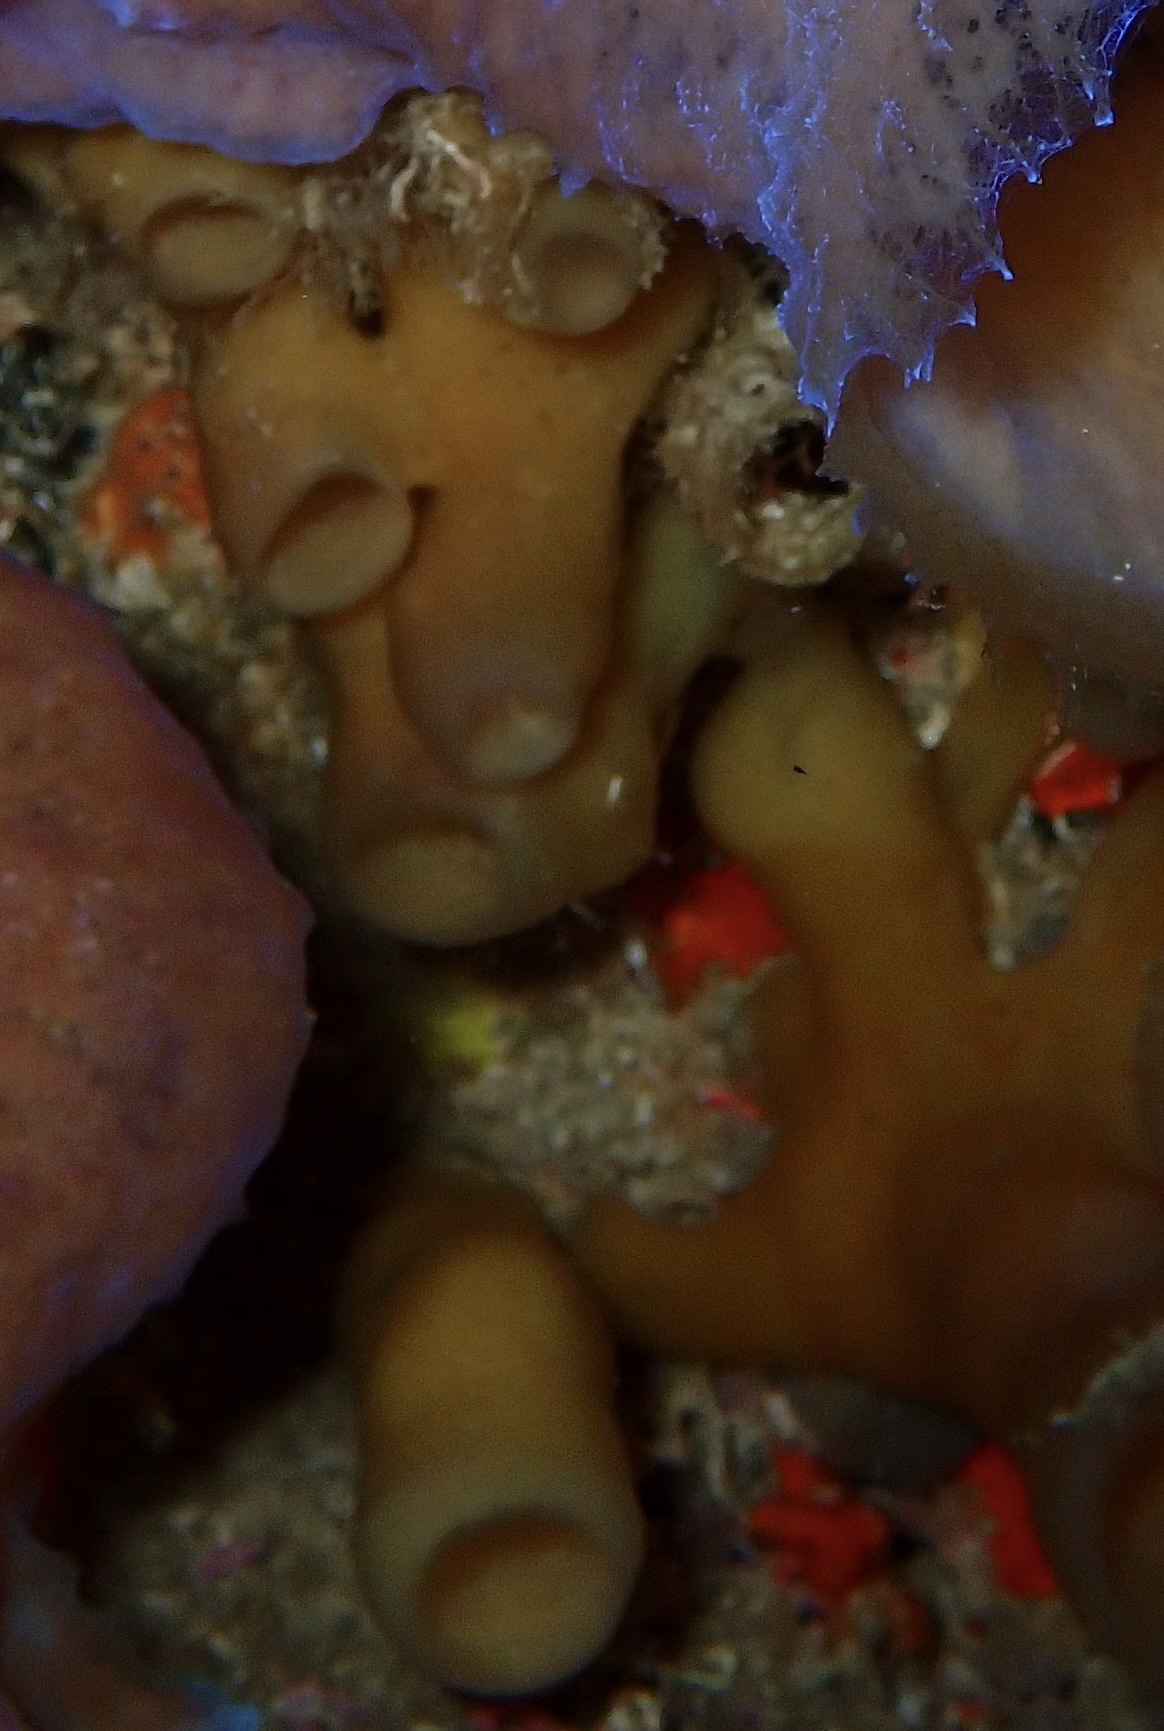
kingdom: Animalia
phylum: Porifera
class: Demospongiae
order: Haplosclerida
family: Callyspongiidae
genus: Callyspongia
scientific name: Callyspongia fallax
